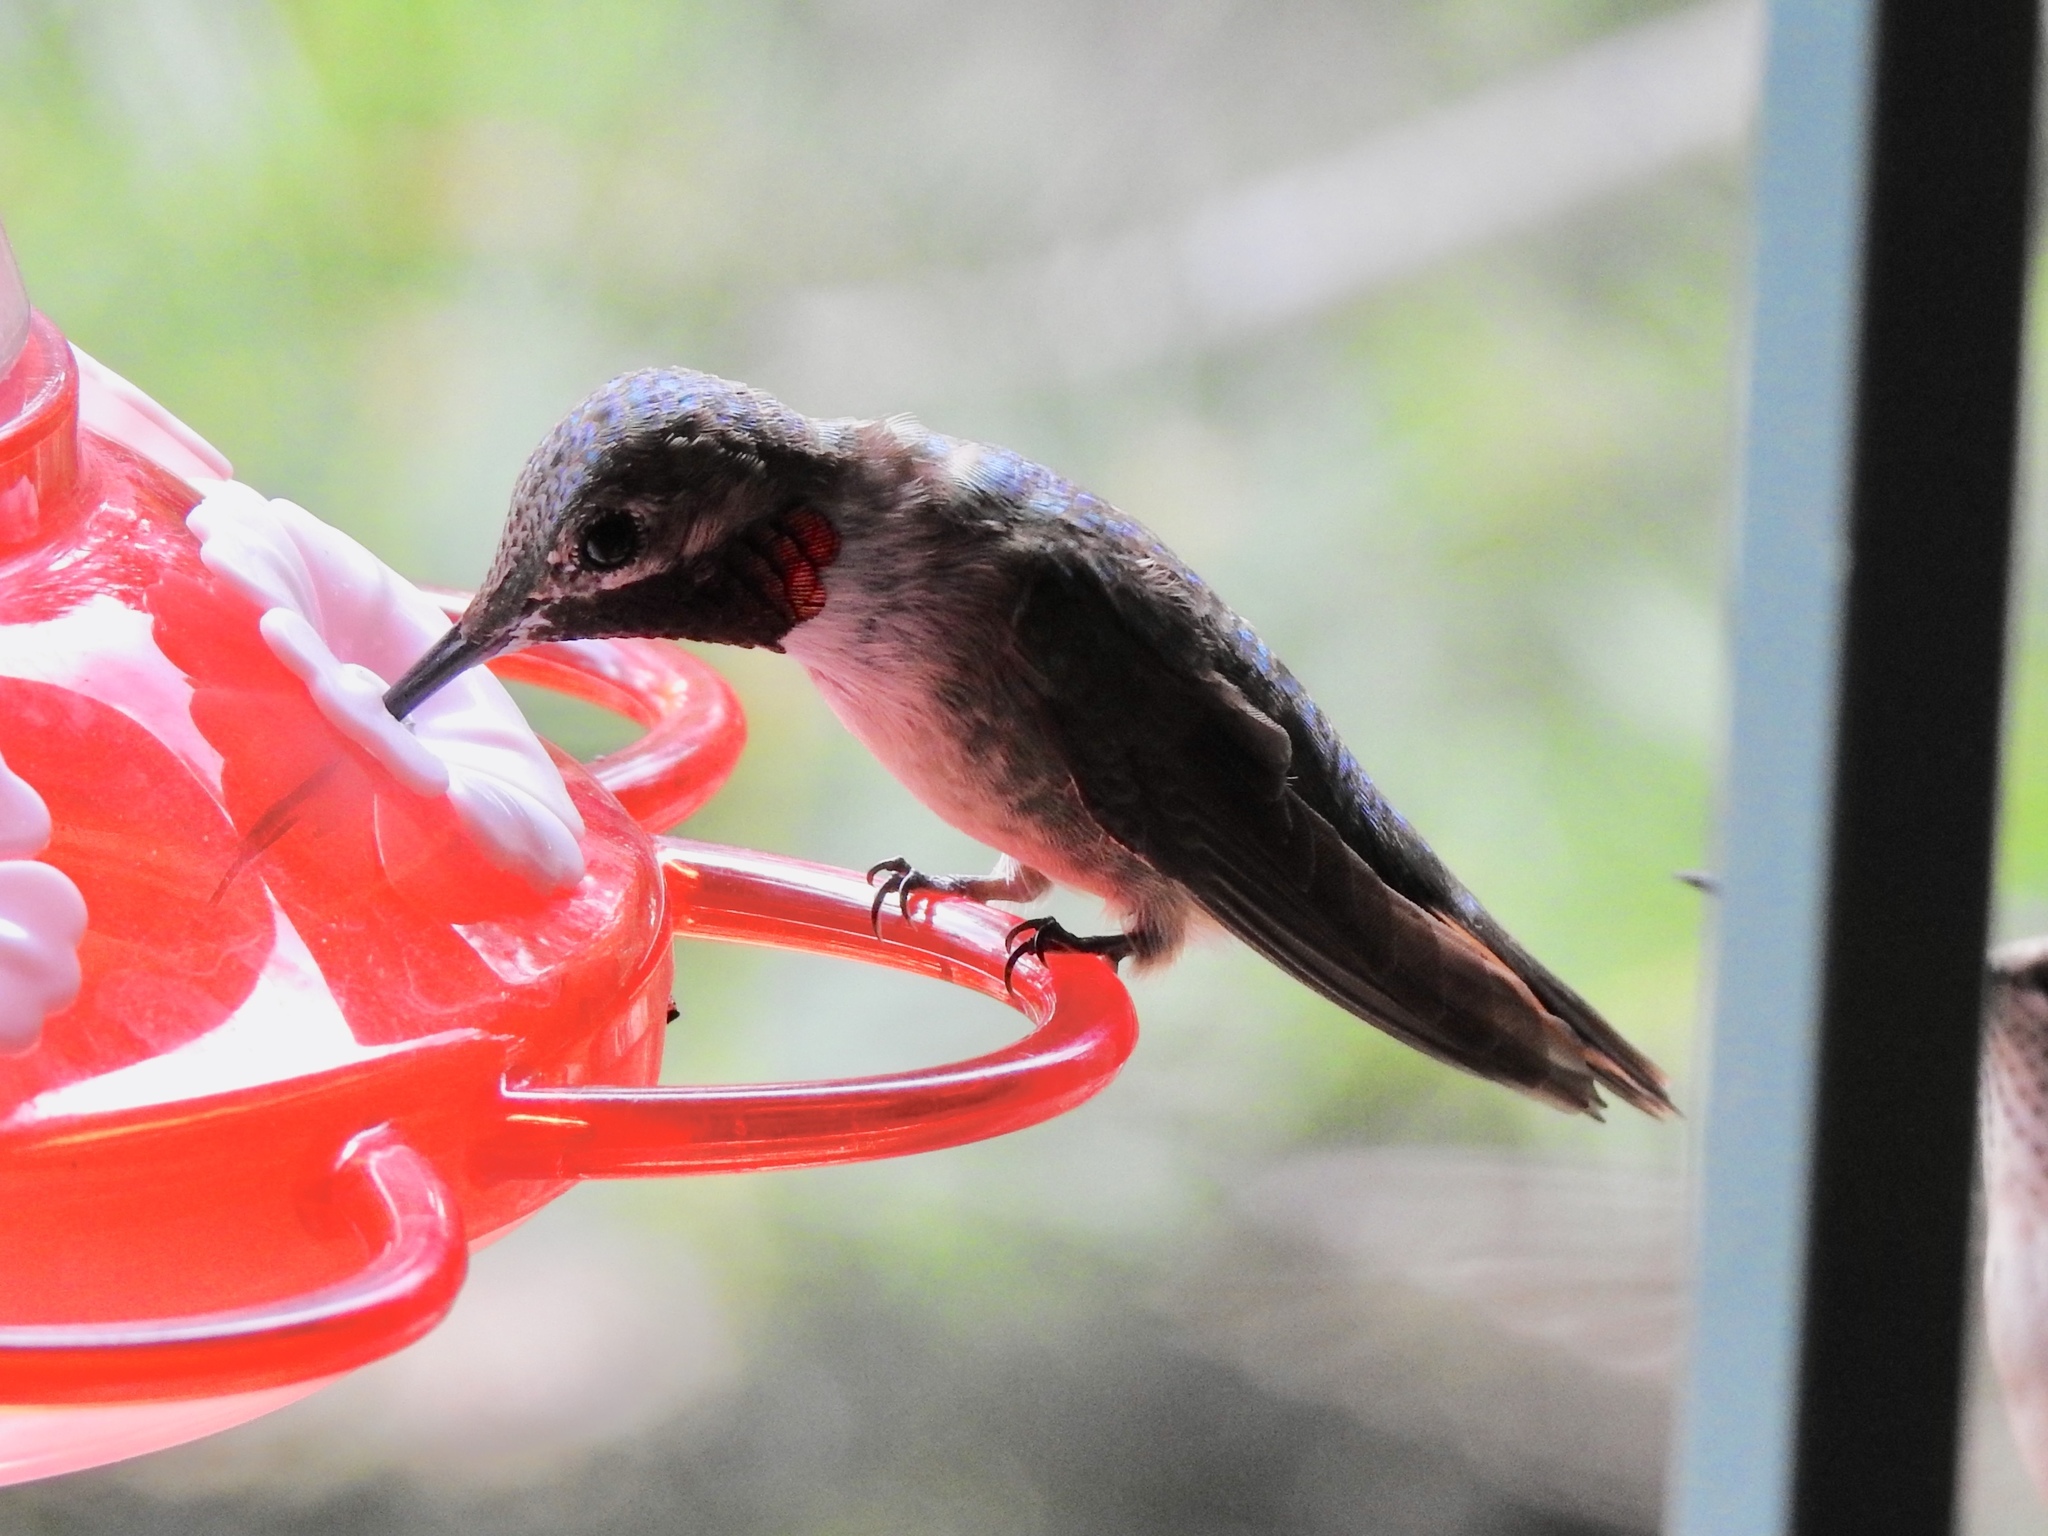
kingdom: Animalia
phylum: Chordata
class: Aves
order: Apodiformes
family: Trochilidae
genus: Selasphorus
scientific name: Selasphorus platycercus
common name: Broad-tailed hummingbird
